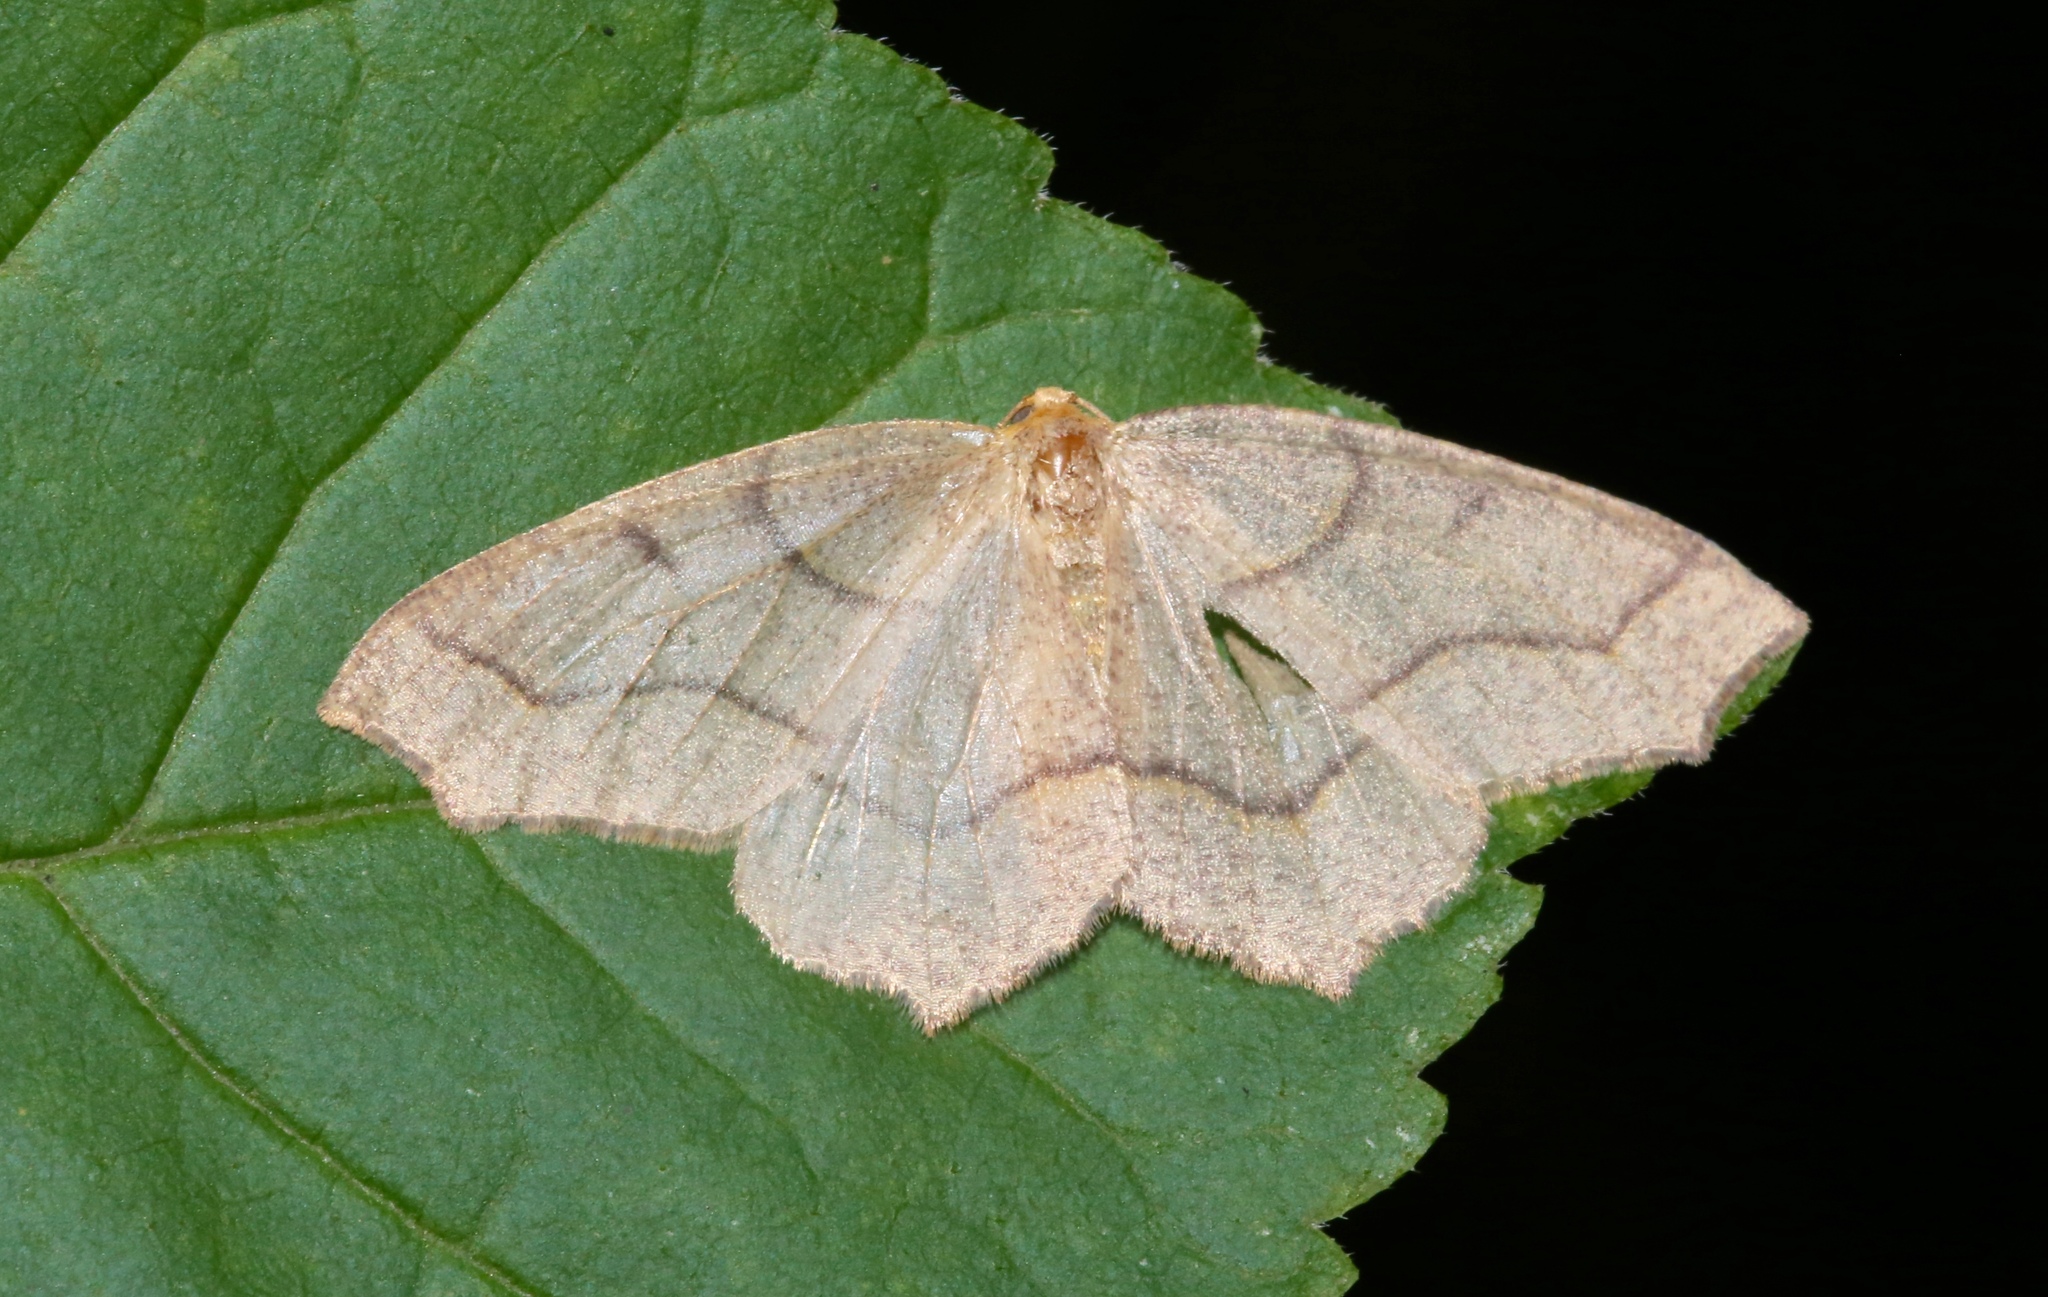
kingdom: Animalia
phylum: Arthropoda
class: Insecta
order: Lepidoptera
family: Geometridae
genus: Lambdina
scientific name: Lambdina fiscellaria
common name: Hemlock looper
